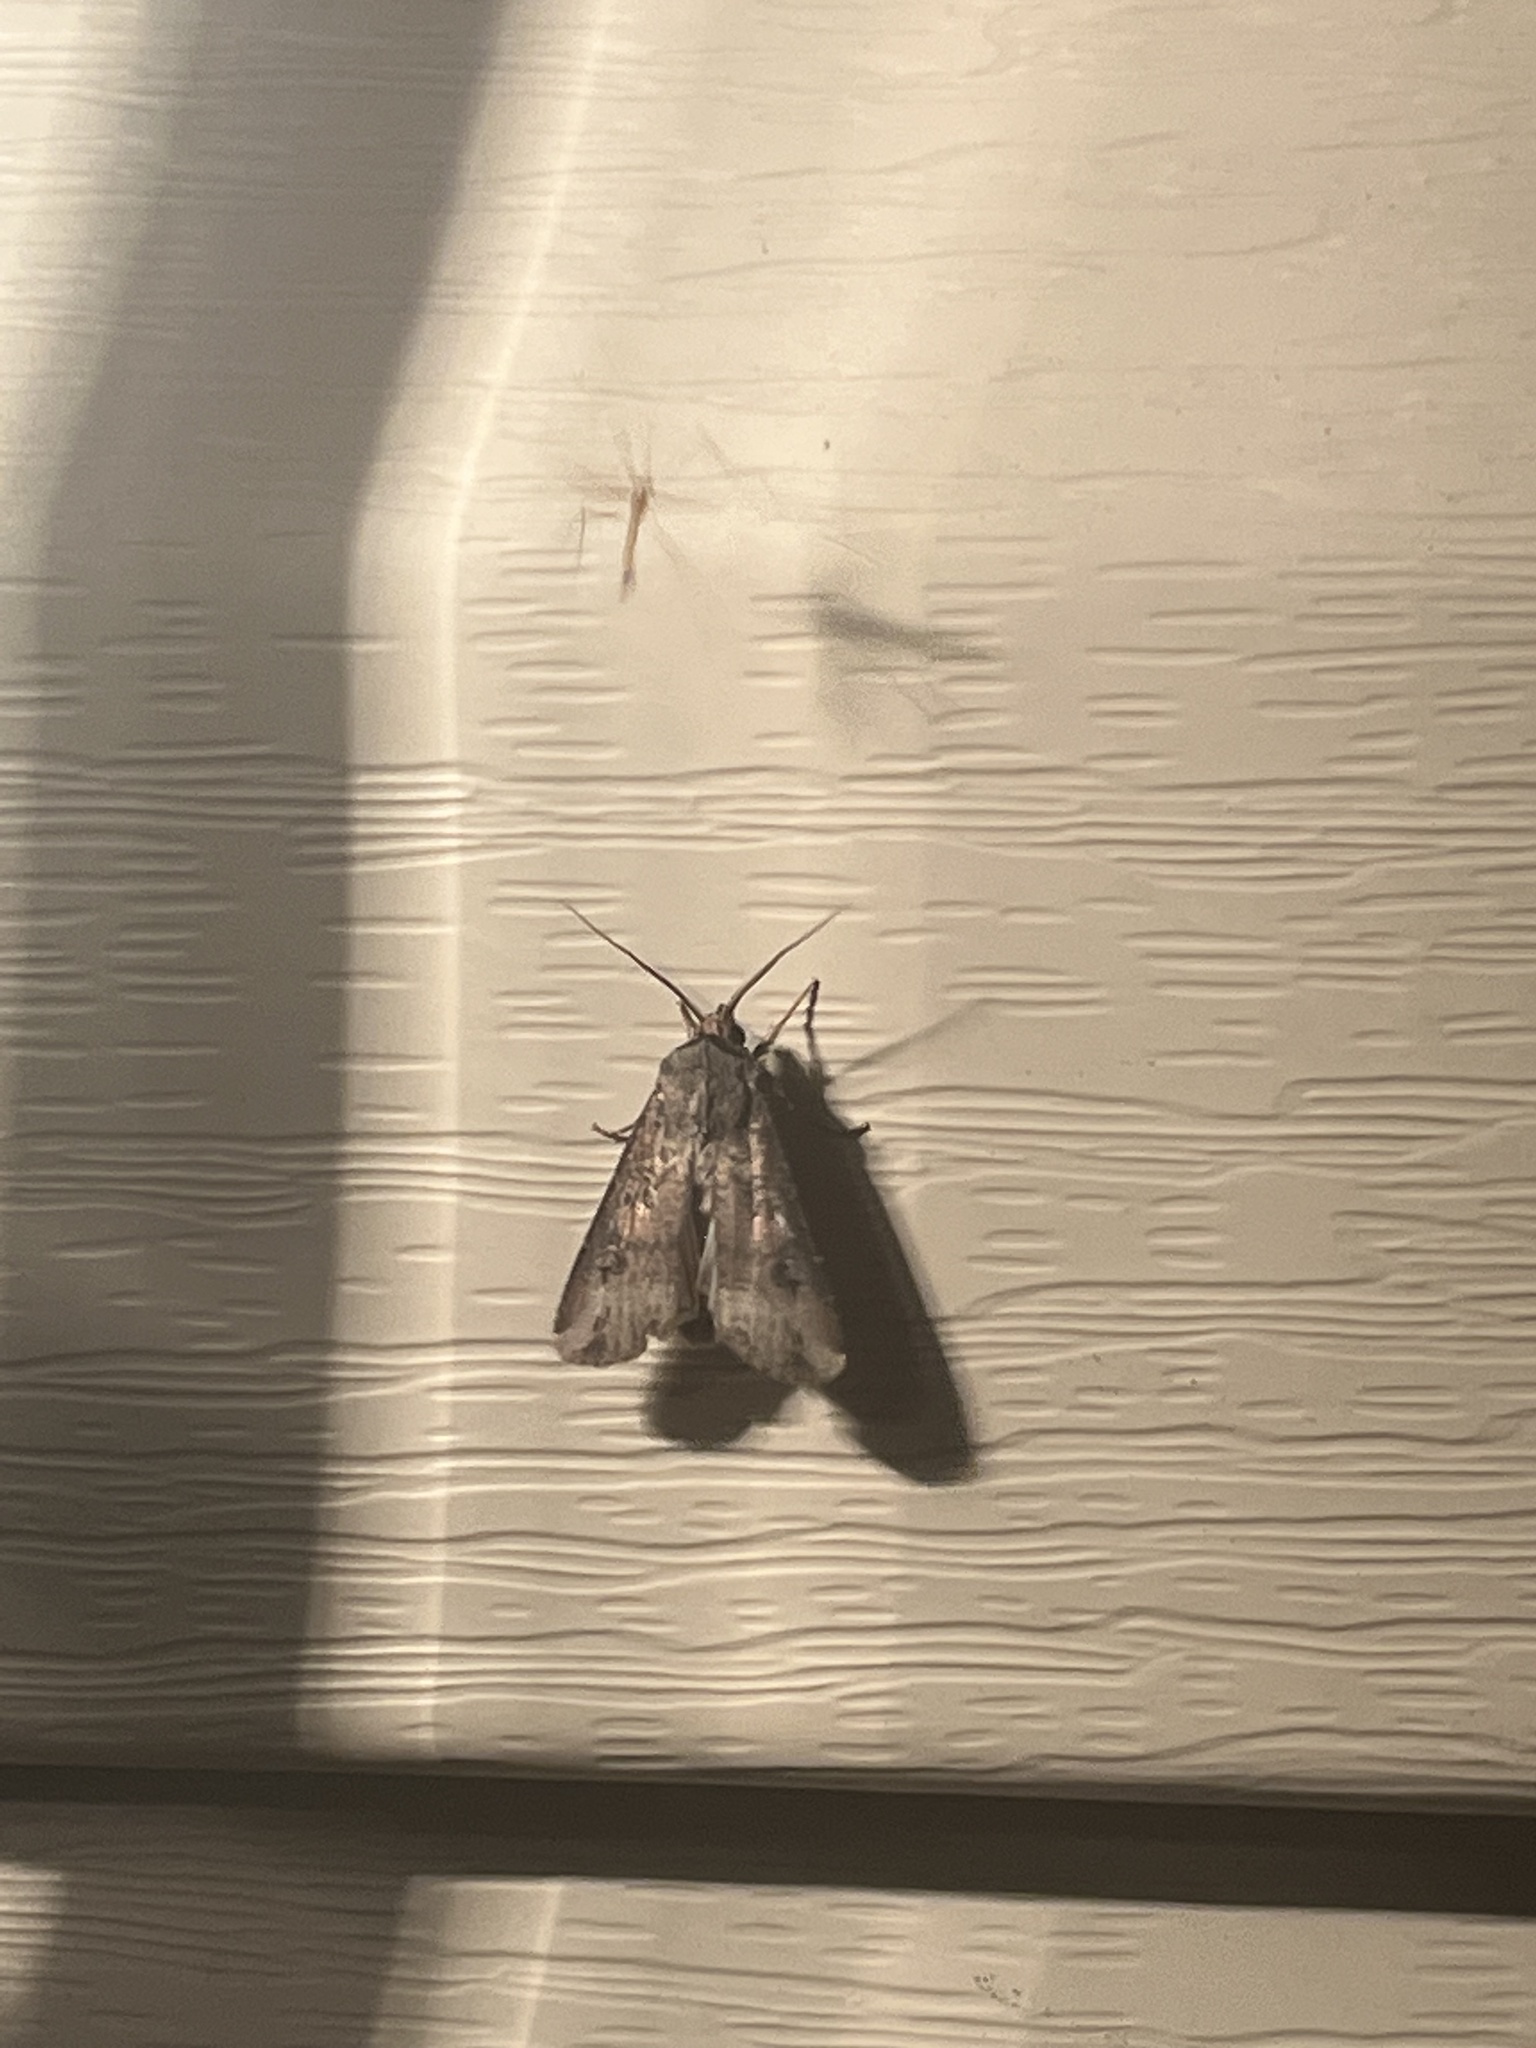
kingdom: Animalia
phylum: Arthropoda
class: Insecta
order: Lepidoptera
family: Noctuidae
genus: Agrotis
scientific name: Agrotis ipsilon
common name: Dark sword-grass
